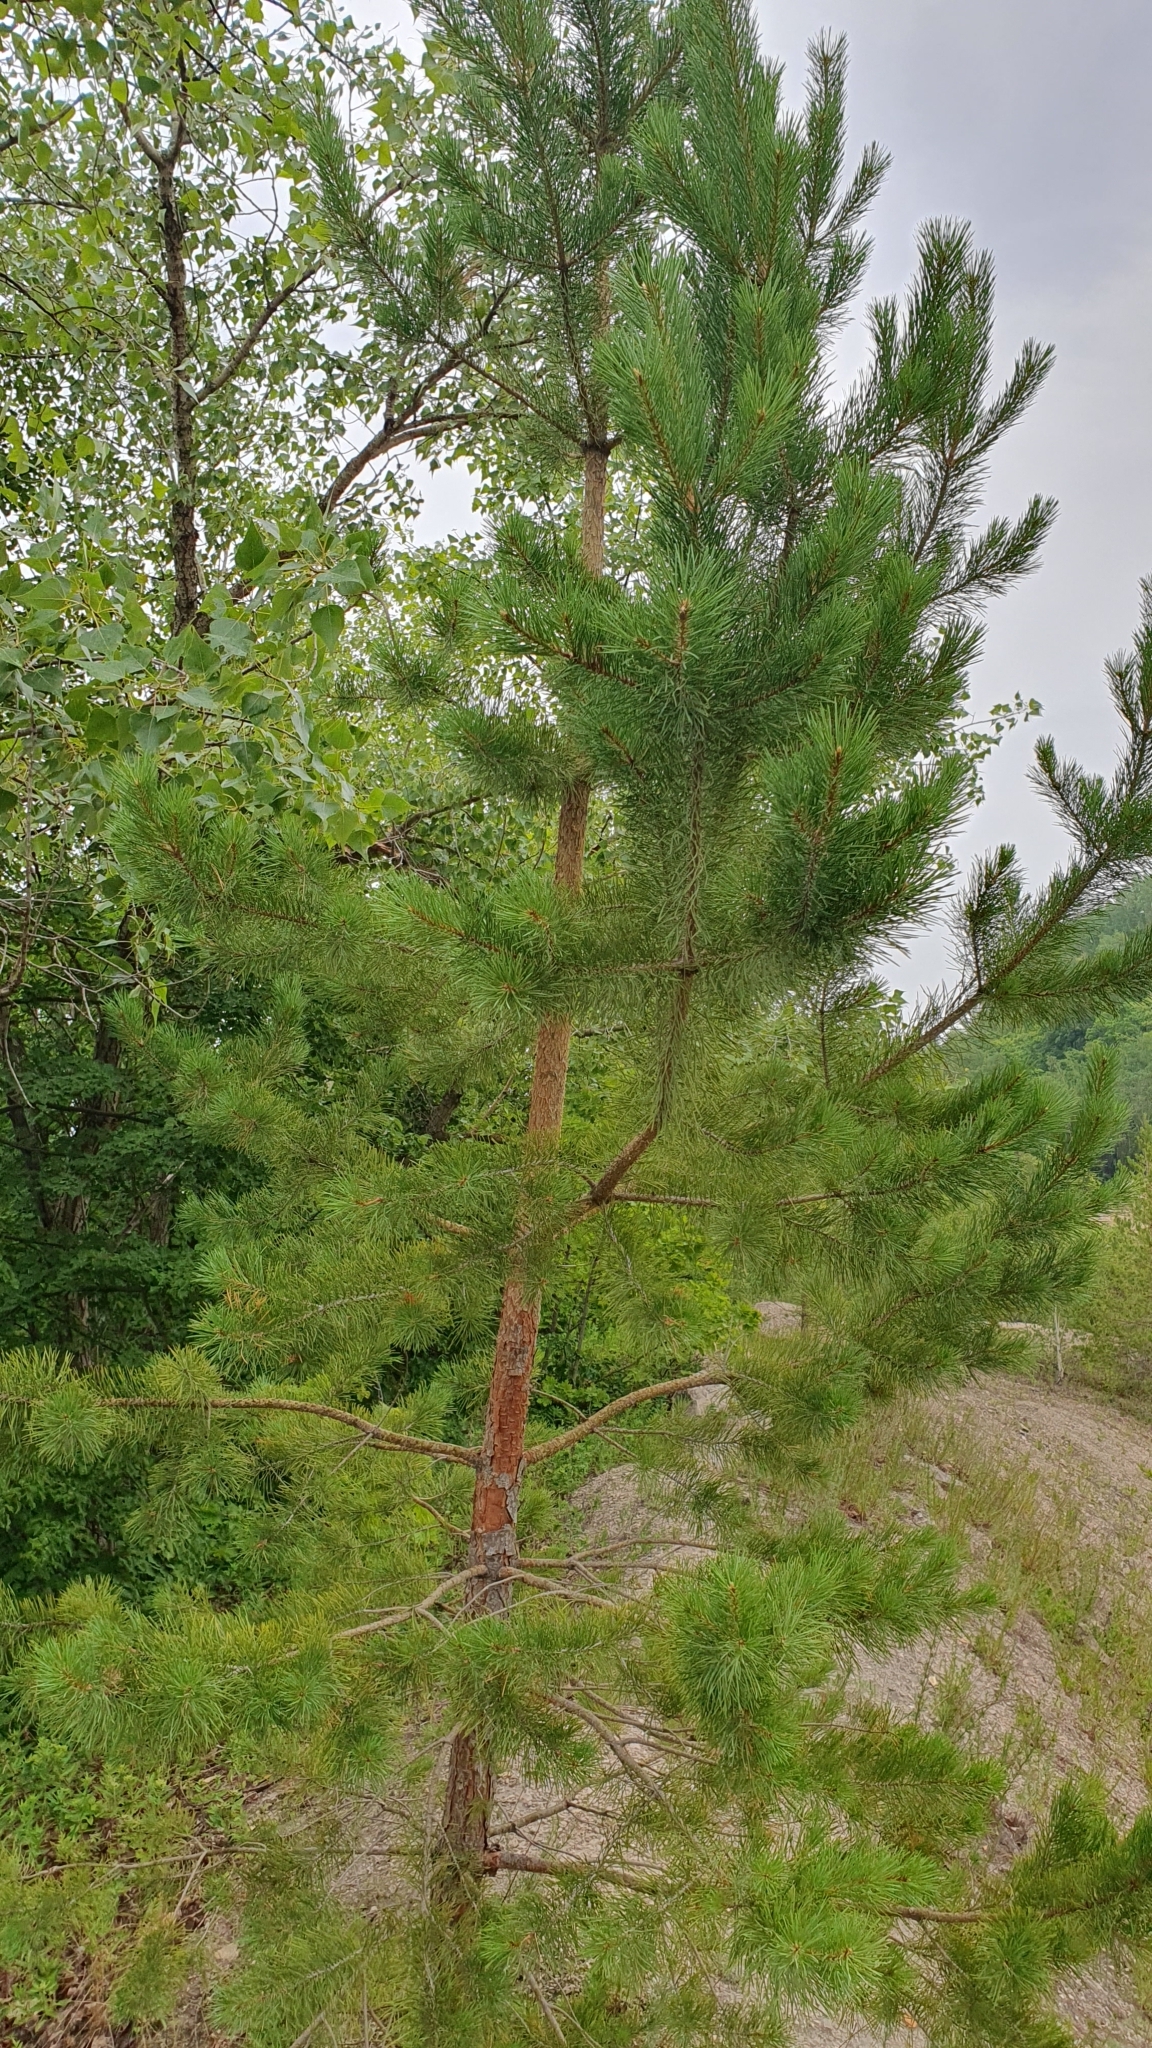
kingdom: Plantae
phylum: Tracheophyta
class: Pinopsida
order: Pinales
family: Pinaceae
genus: Pinus
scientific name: Pinus sylvestris
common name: Scots pine
